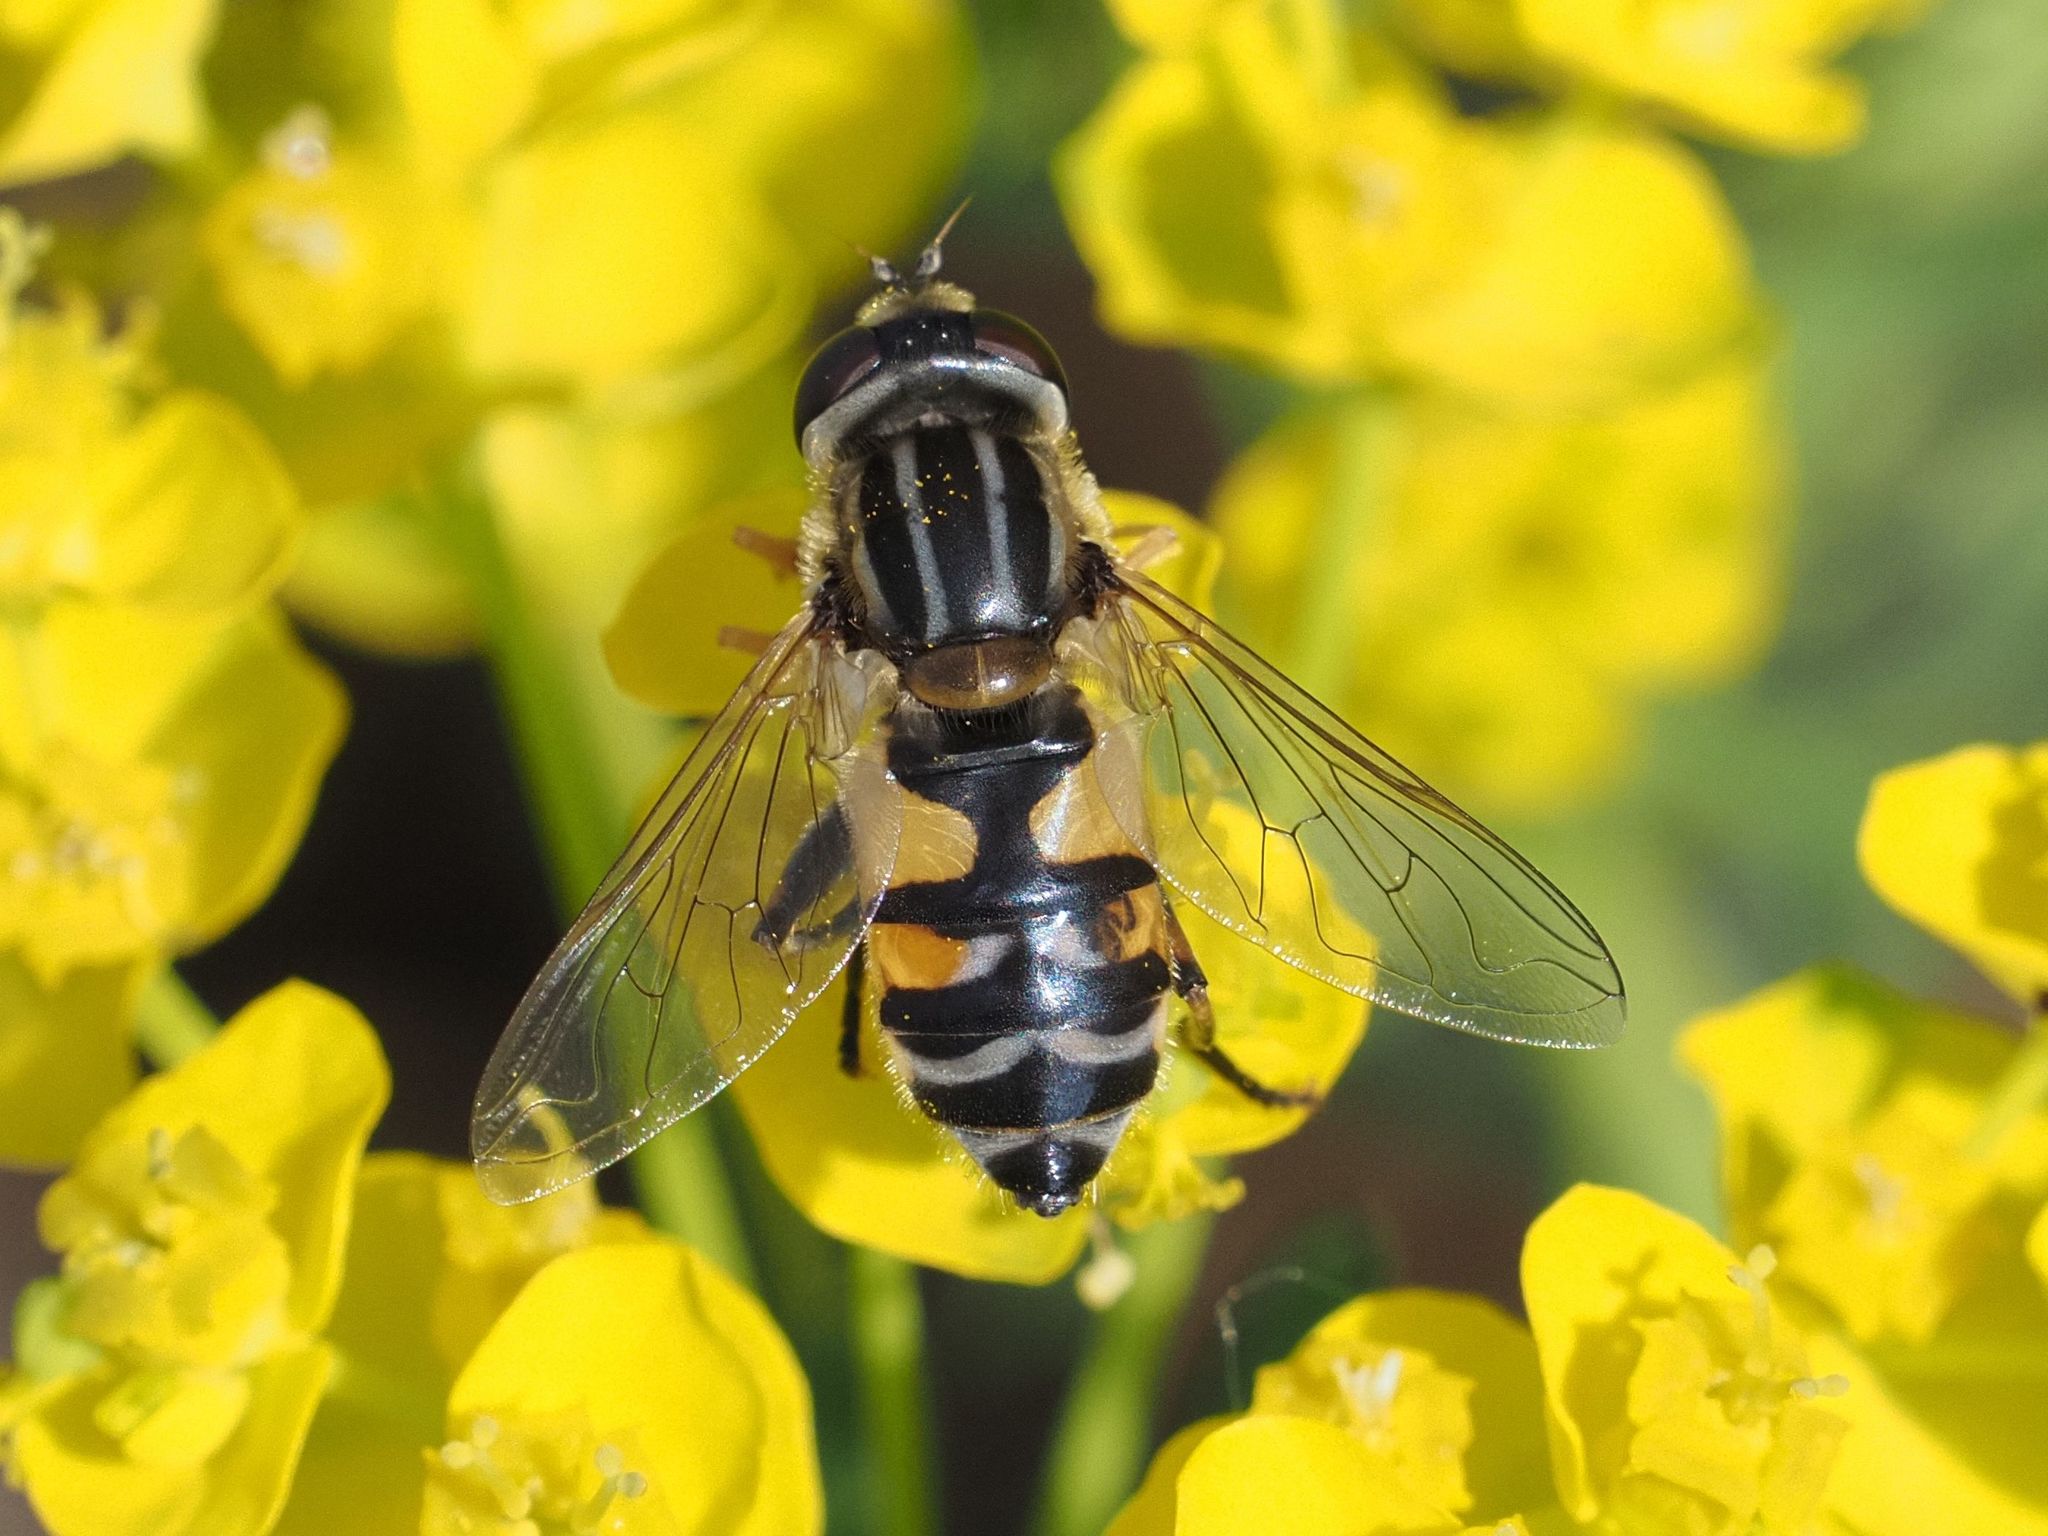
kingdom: Animalia
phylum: Arthropoda
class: Insecta
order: Diptera
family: Syrphidae
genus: Helophilus
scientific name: Helophilus trivittatus
